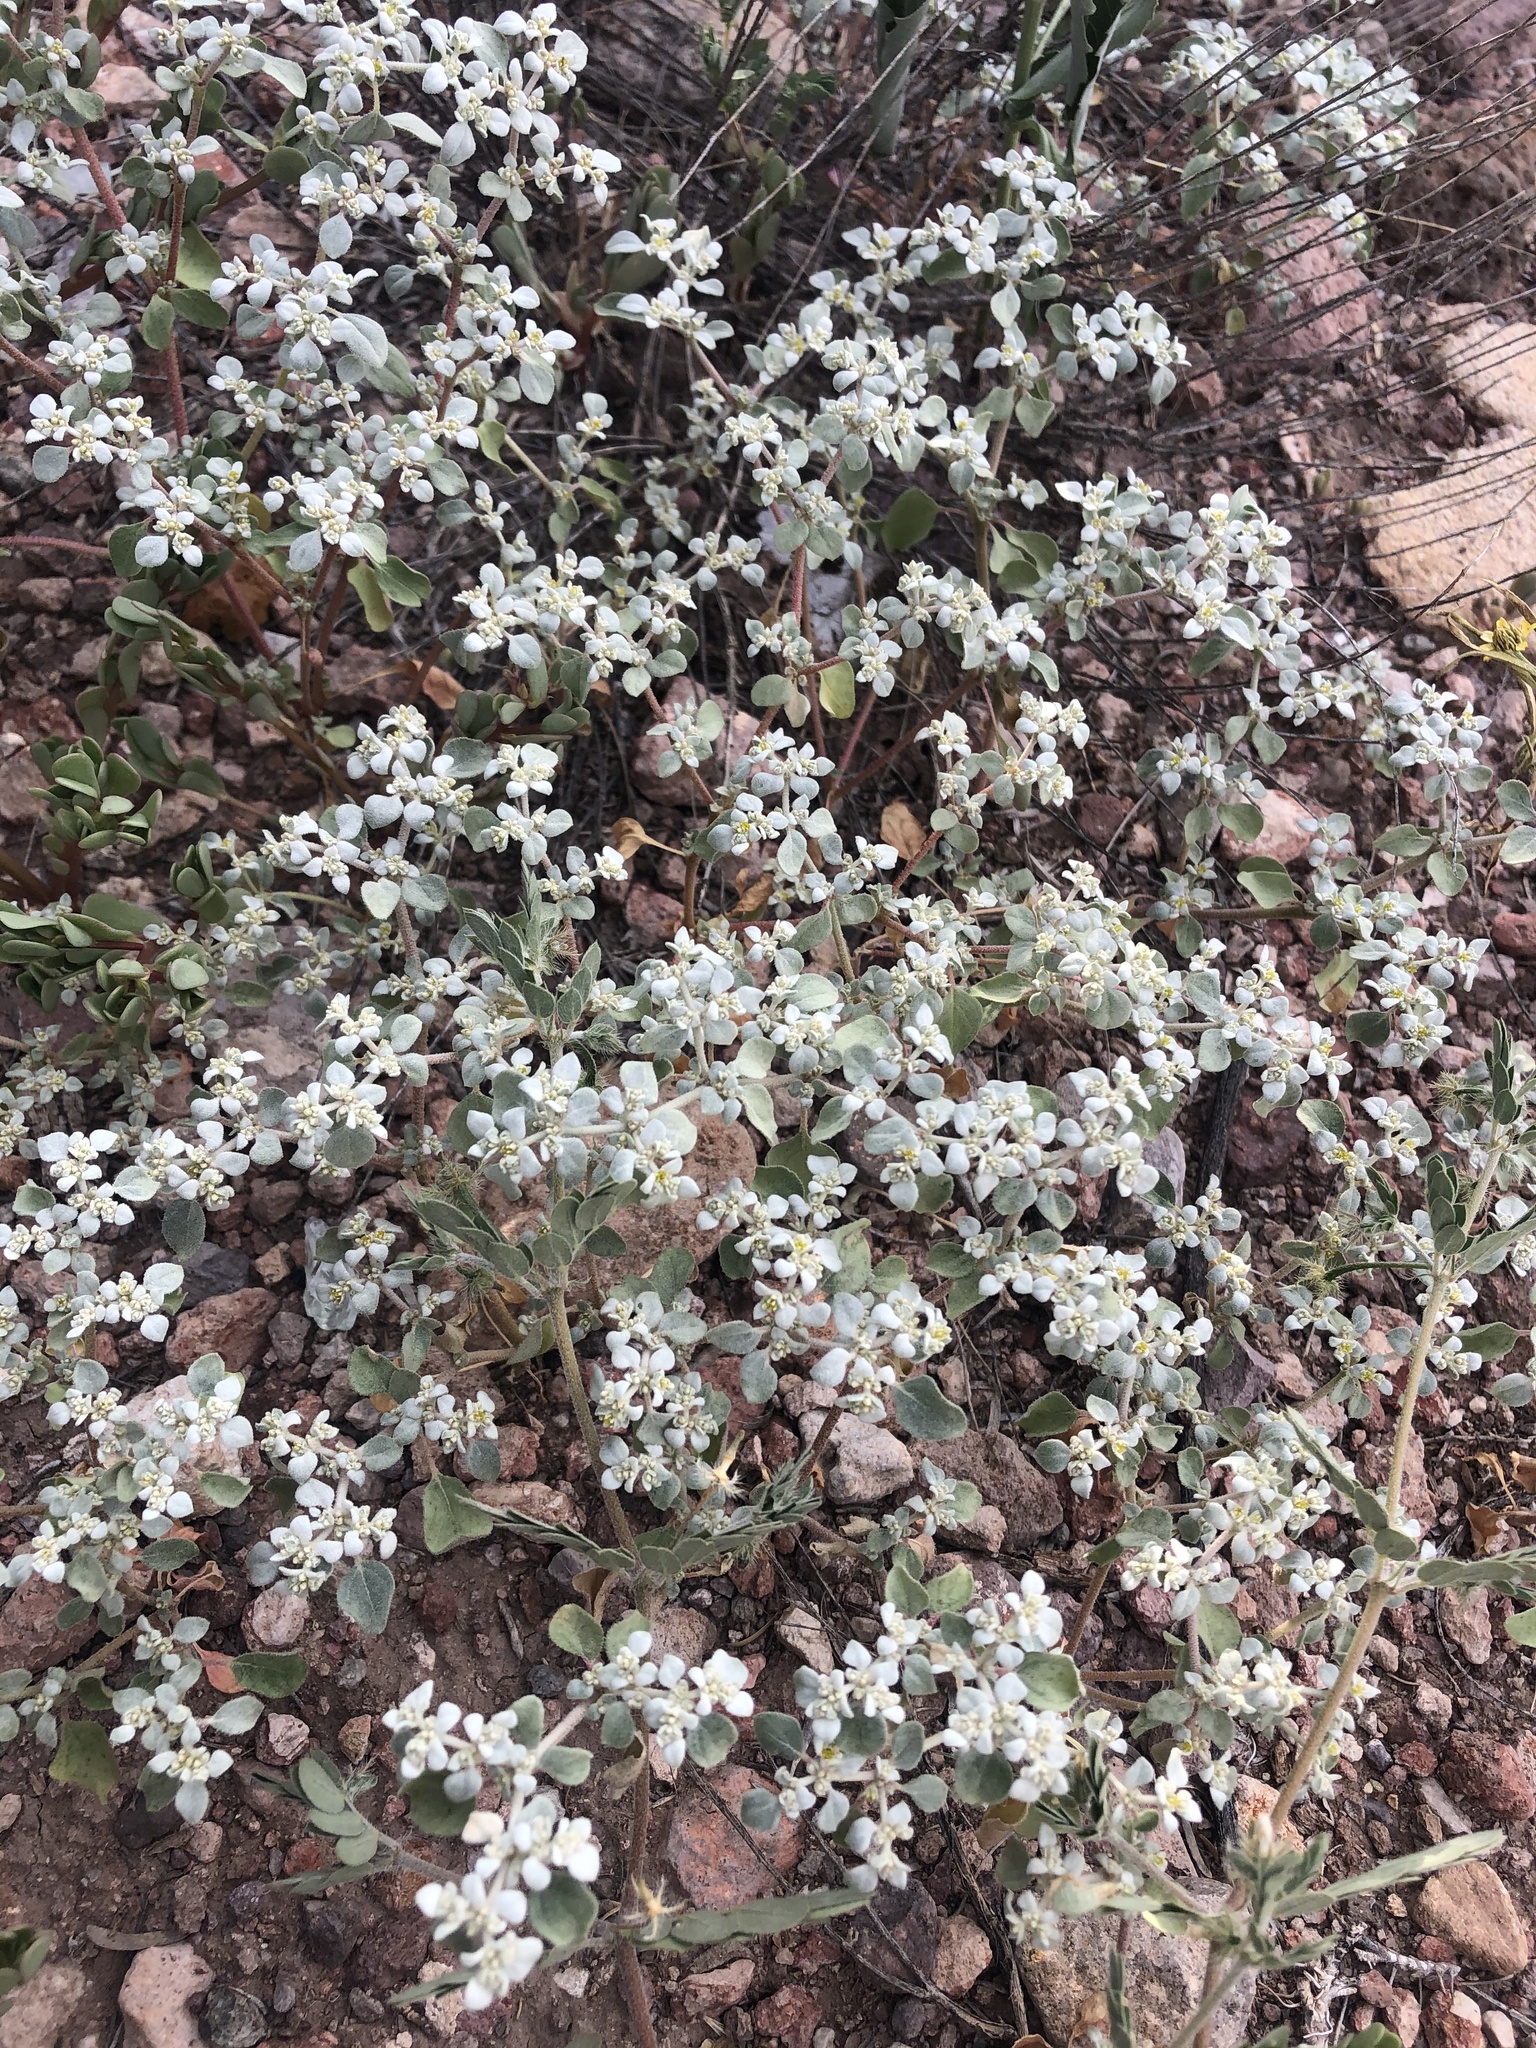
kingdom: Plantae
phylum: Tracheophyta
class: Magnoliopsida
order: Caryophyllales
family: Amaranthaceae
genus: Tidestromia
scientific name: Tidestromia lanuginosa
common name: Woolly tidestromia
